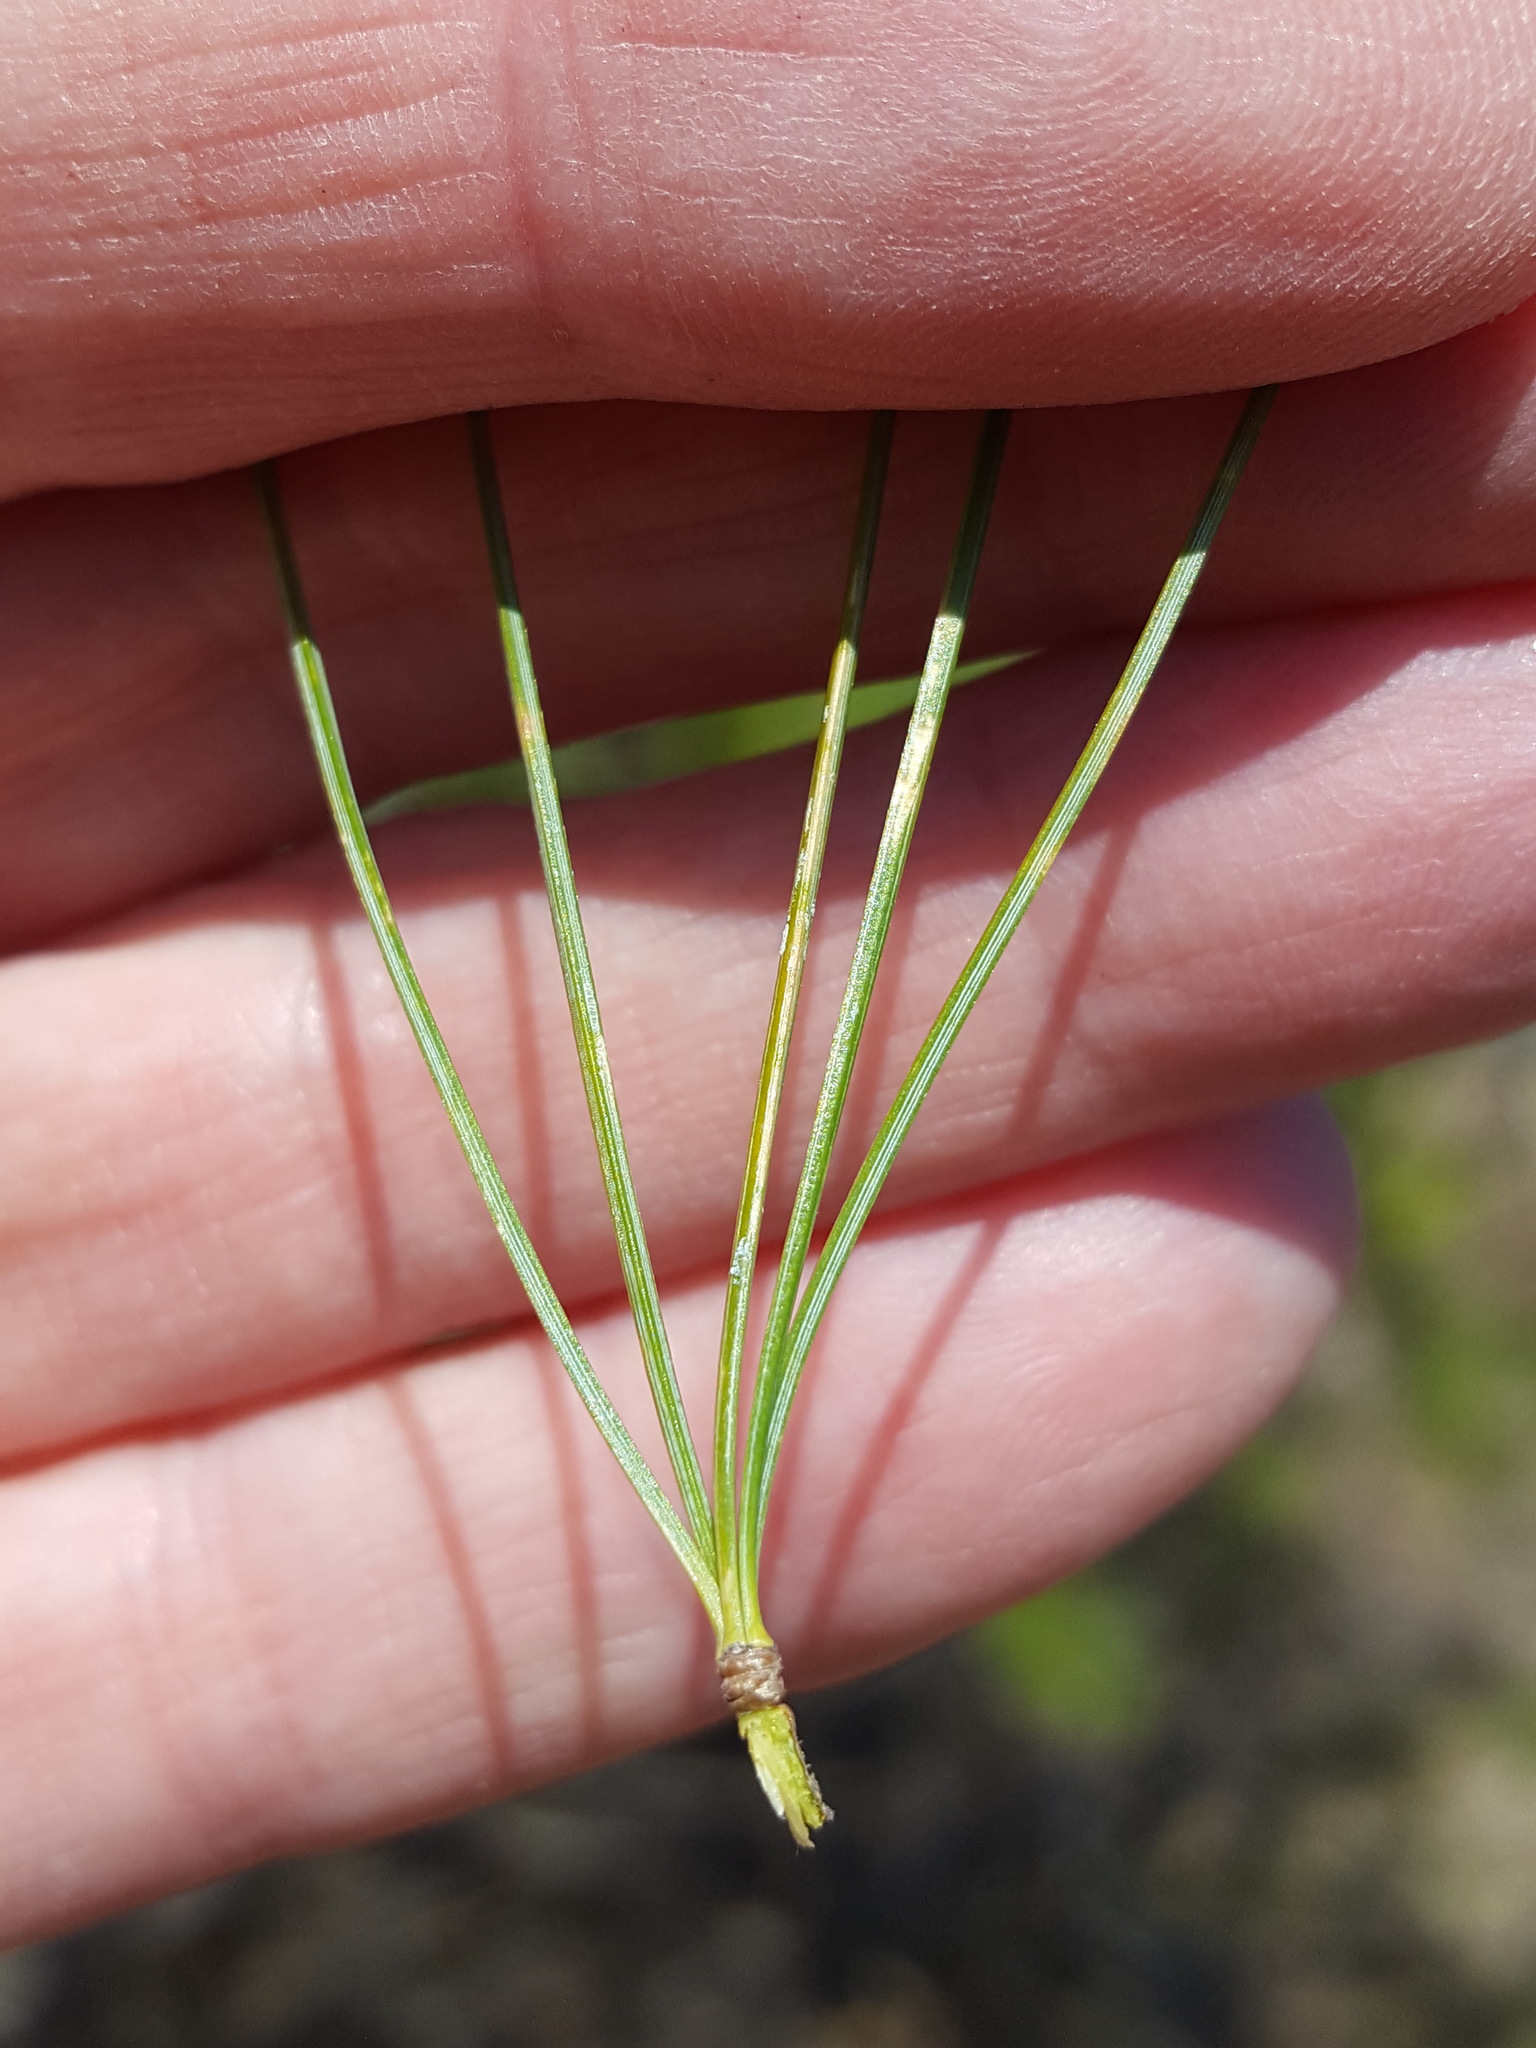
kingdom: Plantae
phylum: Tracheophyta
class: Pinopsida
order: Pinales
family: Pinaceae
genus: Pinus
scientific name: Pinus strobus
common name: Weymouth pine
